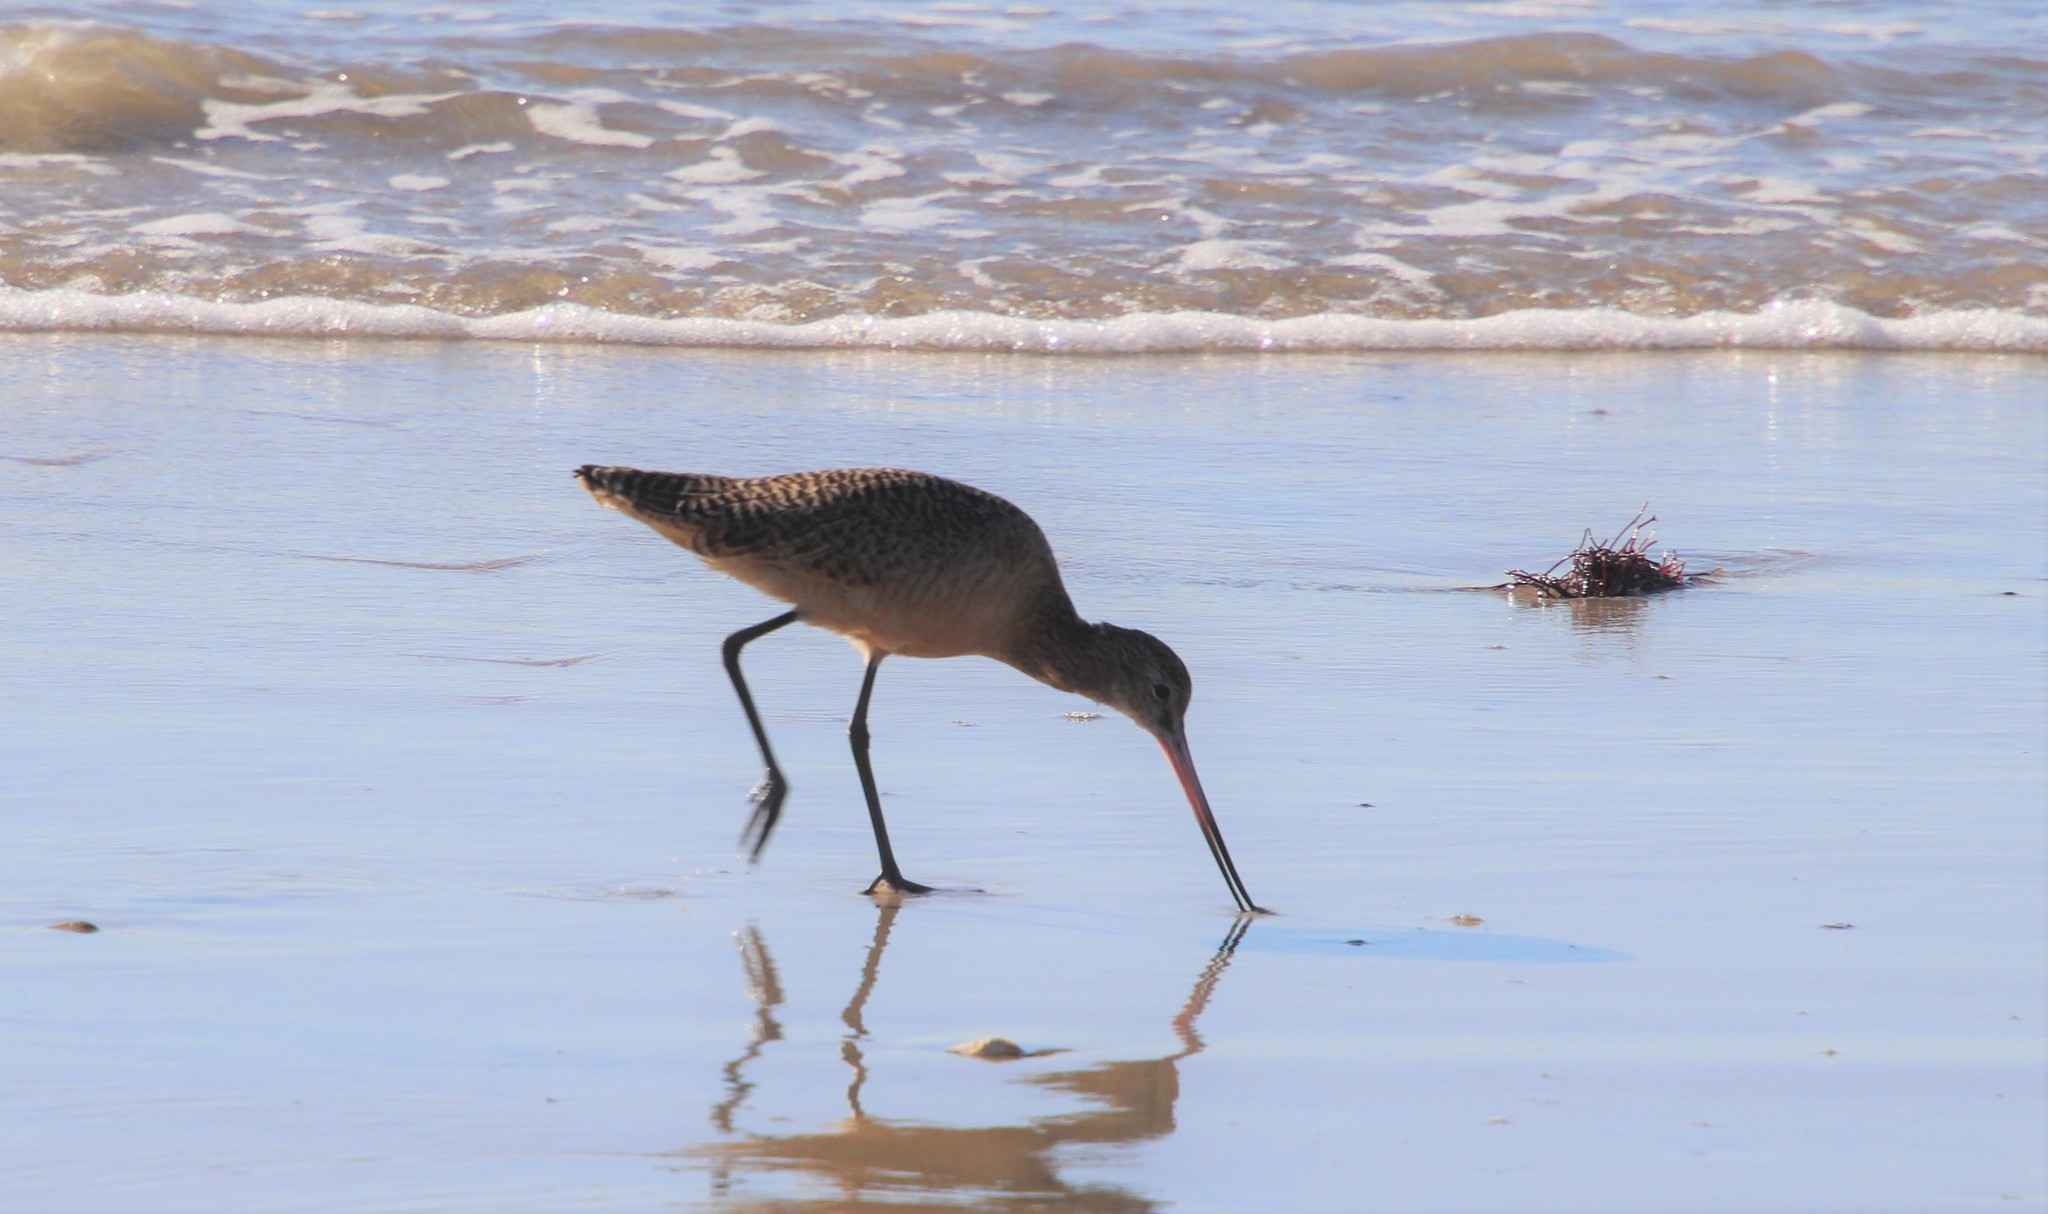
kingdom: Animalia
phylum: Chordata
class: Aves
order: Charadriiformes
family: Scolopacidae
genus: Limosa
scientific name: Limosa fedoa
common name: Marbled godwit
